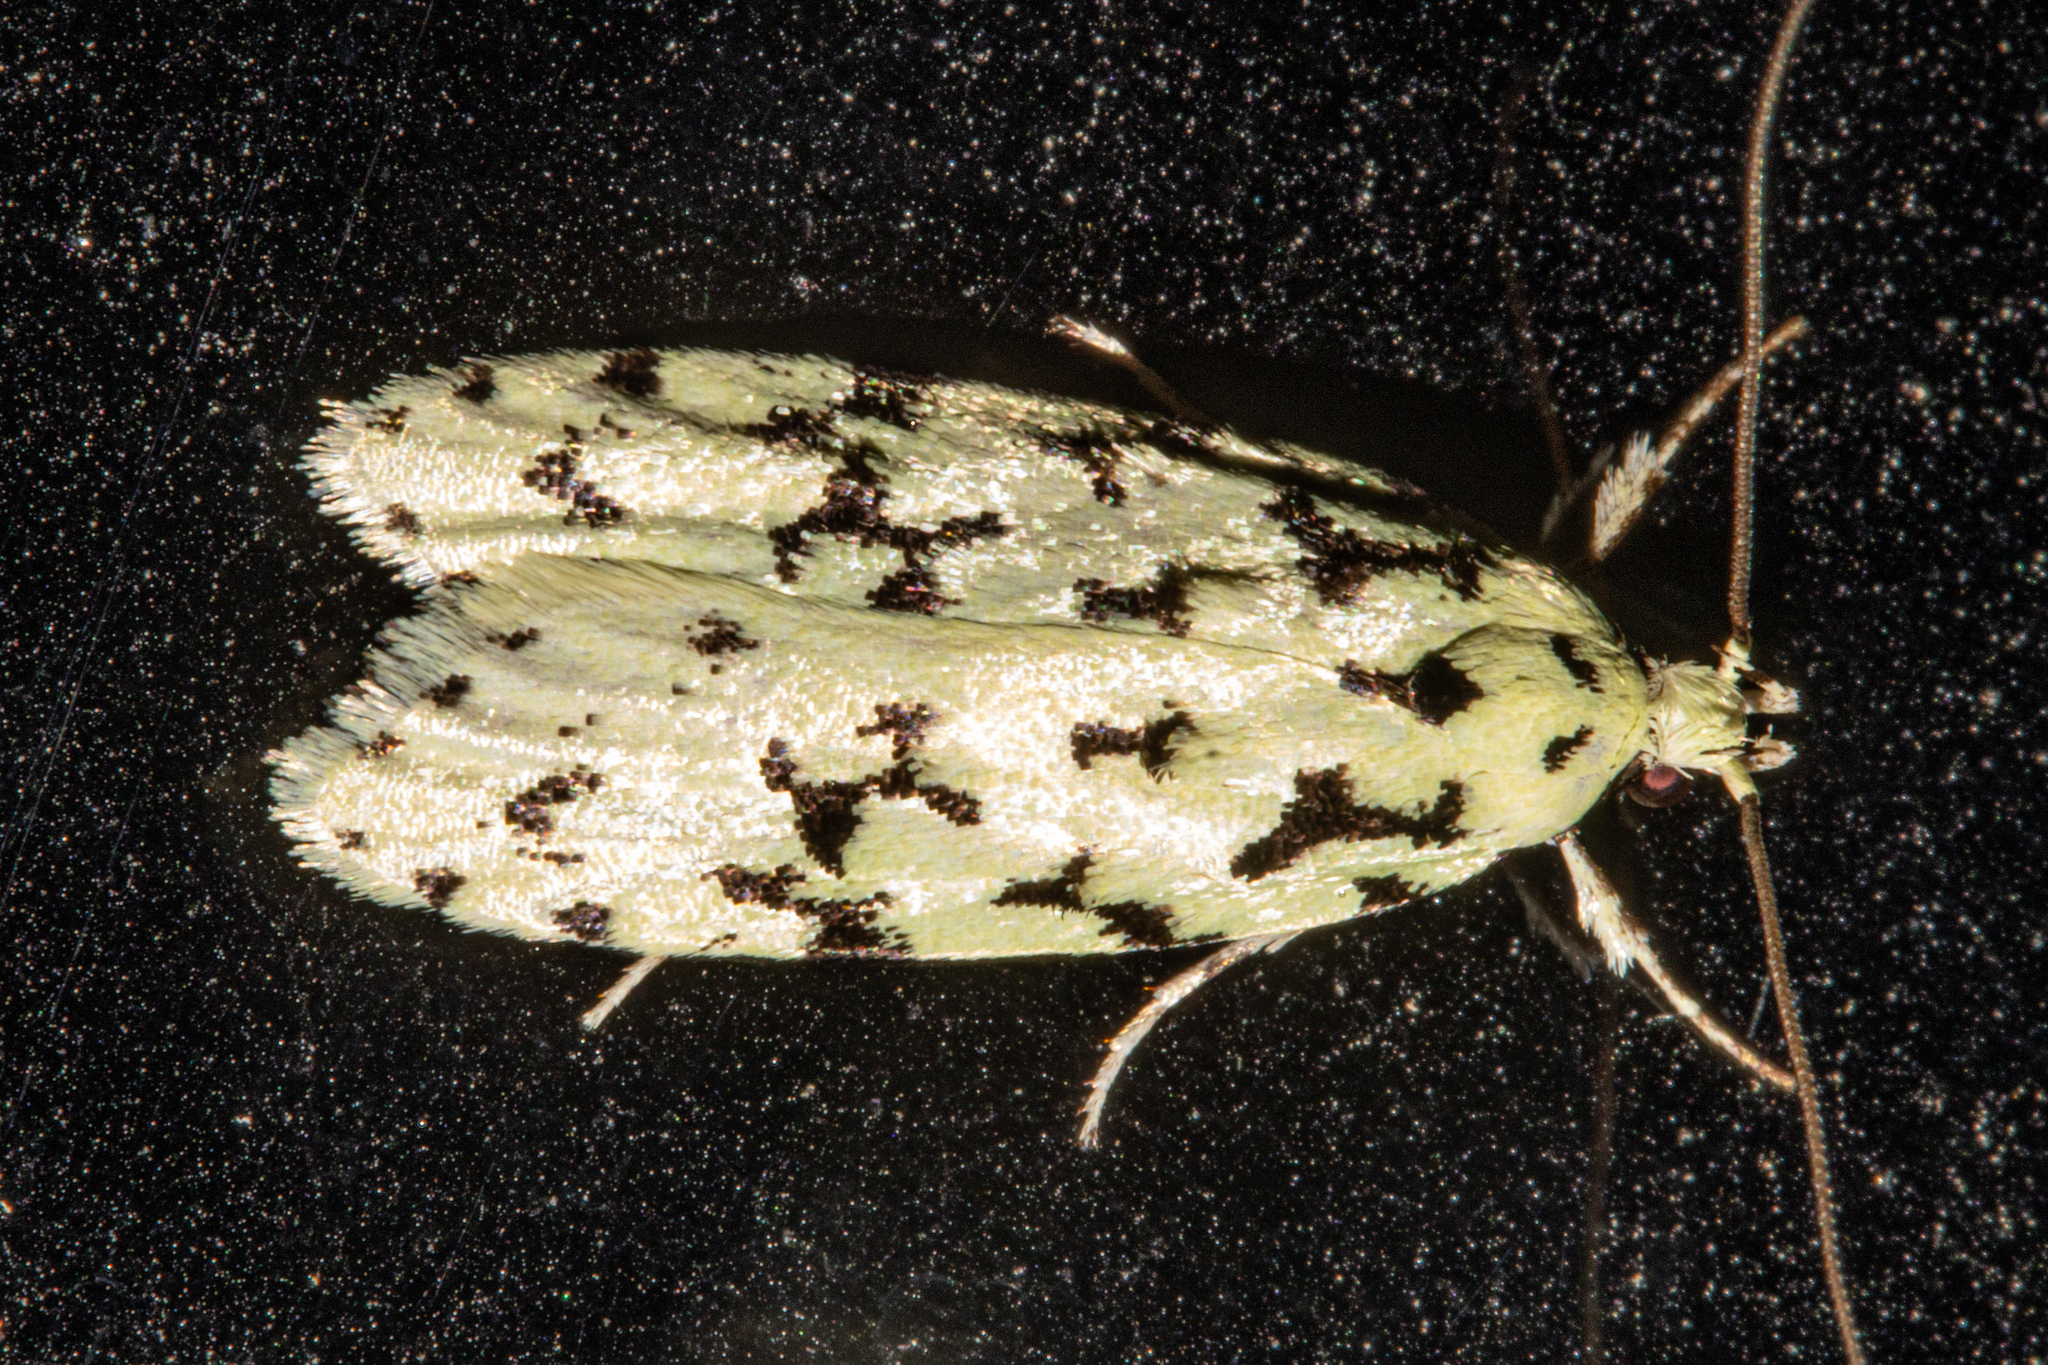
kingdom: Animalia
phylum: Arthropoda
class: Insecta
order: Lepidoptera
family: Oecophoridae
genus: Izatha
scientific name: Izatha huttoni
